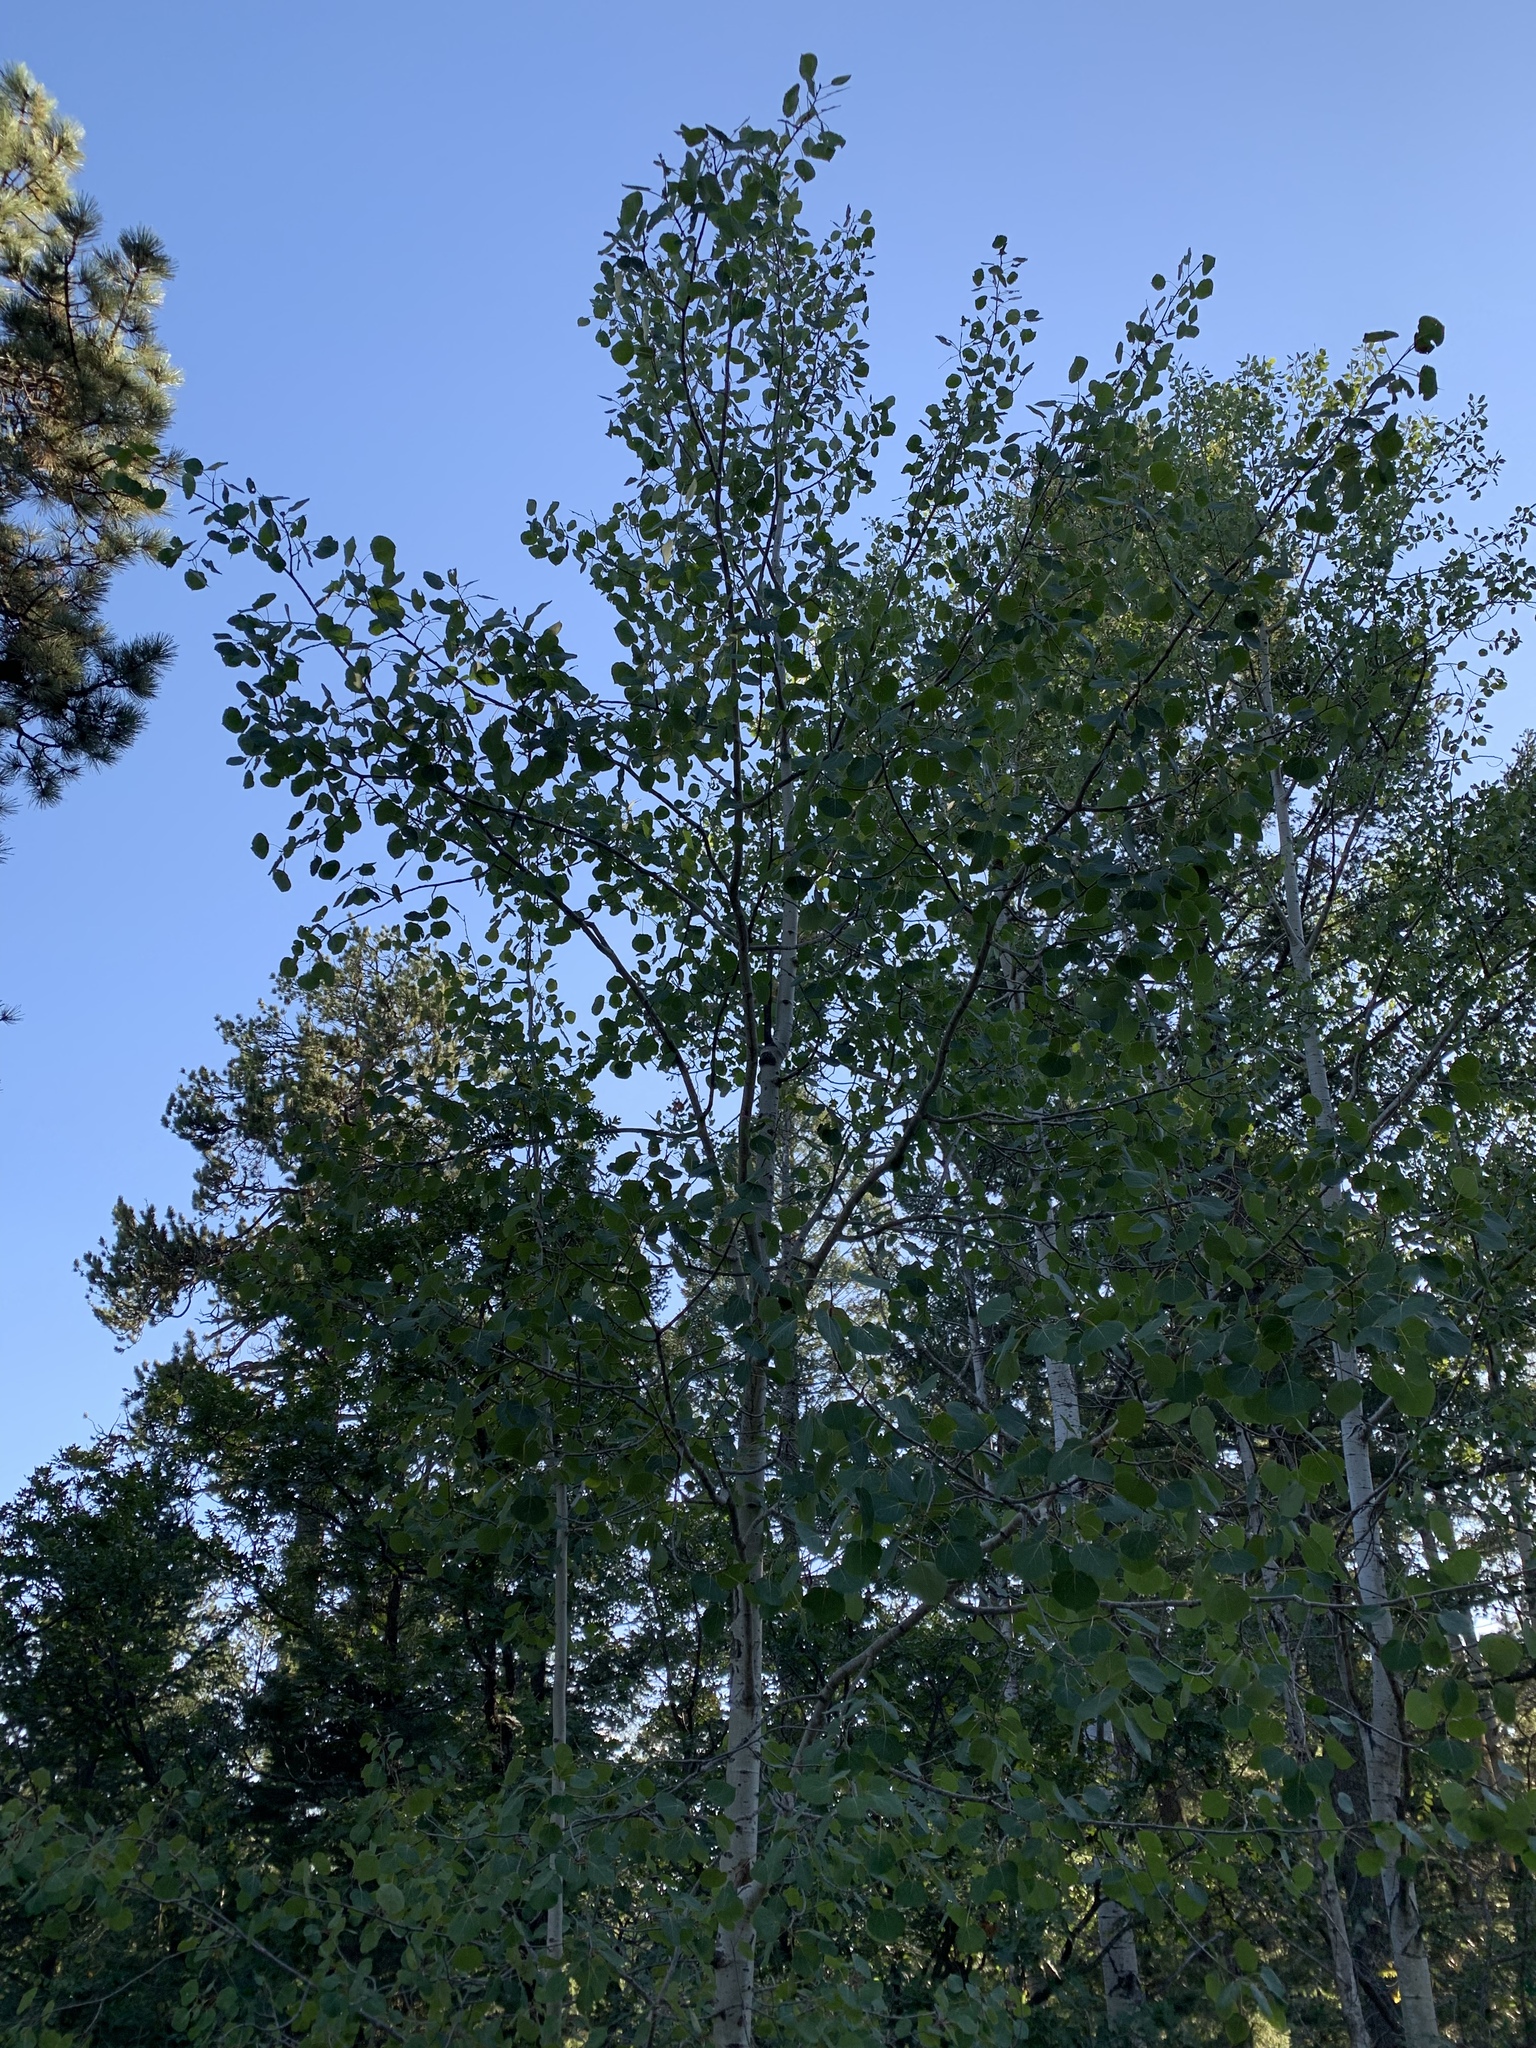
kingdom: Plantae
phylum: Tracheophyta
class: Magnoliopsida
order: Malpighiales
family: Salicaceae
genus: Populus
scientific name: Populus tremuloides
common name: Quaking aspen
